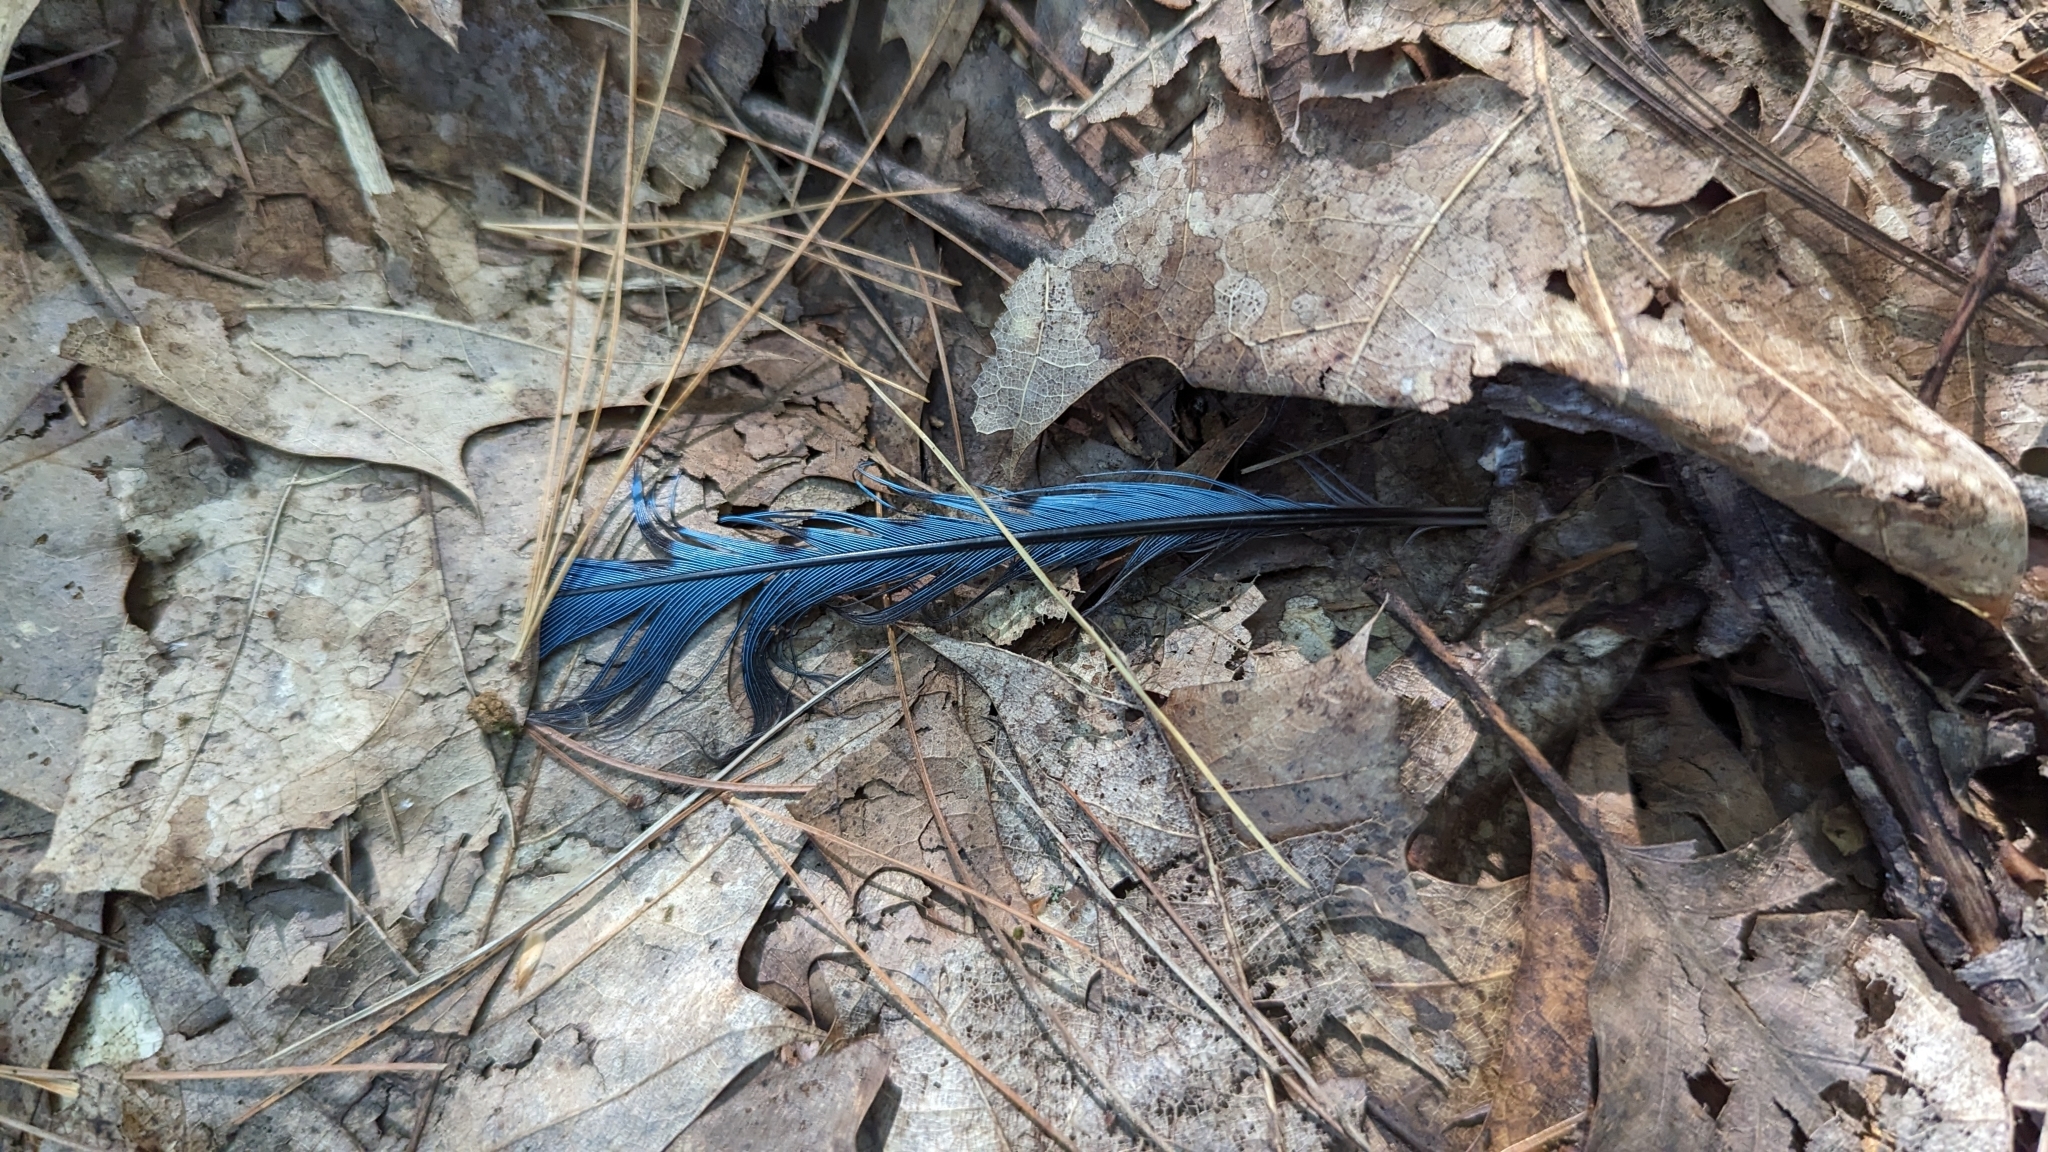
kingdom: Animalia
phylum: Chordata
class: Aves
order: Passeriformes
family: Corvidae
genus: Cyanocitta
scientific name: Cyanocitta cristata
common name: Blue jay
